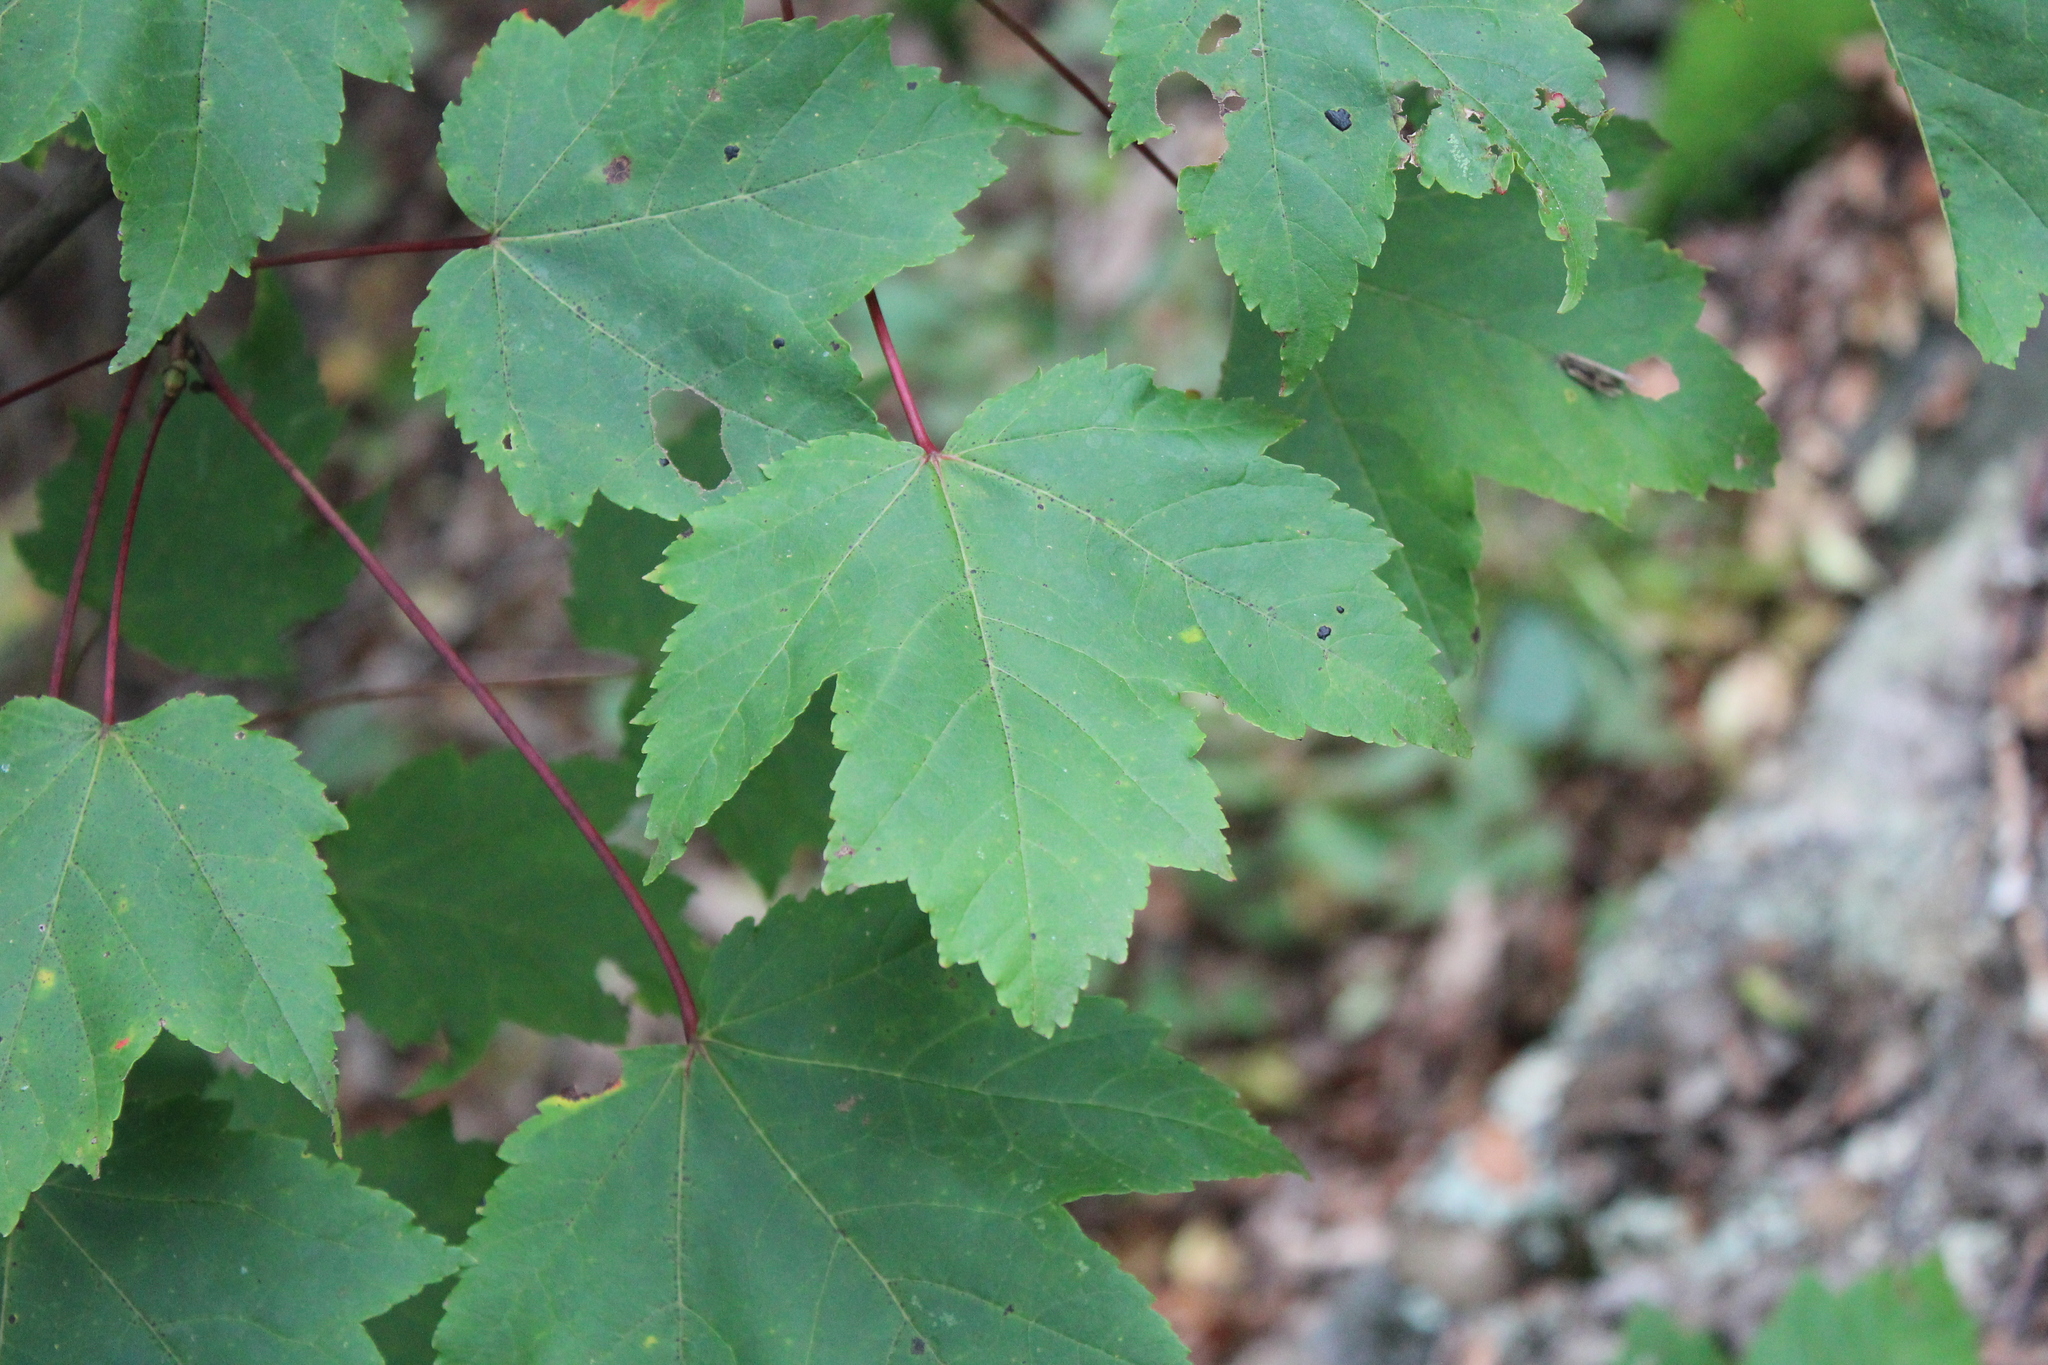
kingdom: Plantae
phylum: Tracheophyta
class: Magnoliopsida
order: Sapindales
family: Sapindaceae
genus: Acer
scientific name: Acer rubrum
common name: Red maple
